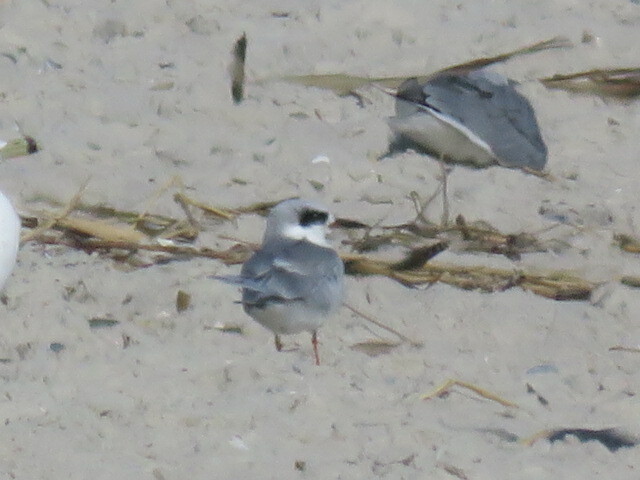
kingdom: Animalia
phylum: Chordata
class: Aves
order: Charadriiformes
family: Laridae
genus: Sterna
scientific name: Sterna forsteri
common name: Forster's tern
